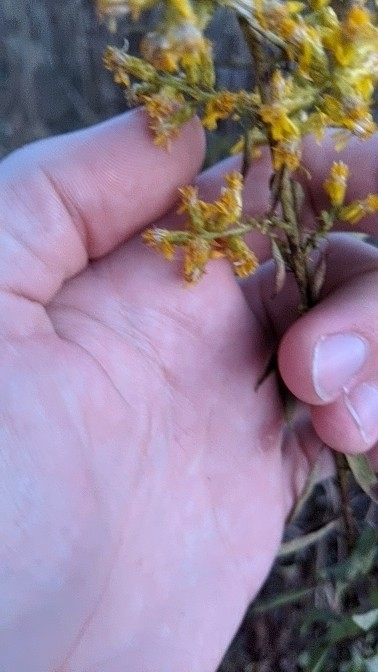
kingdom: Plantae
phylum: Tracheophyta
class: Magnoliopsida
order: Asterales
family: Asteraceae
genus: Solidago
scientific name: Solidago rigidiuscula
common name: Stiff-leaved showy goldenrod
